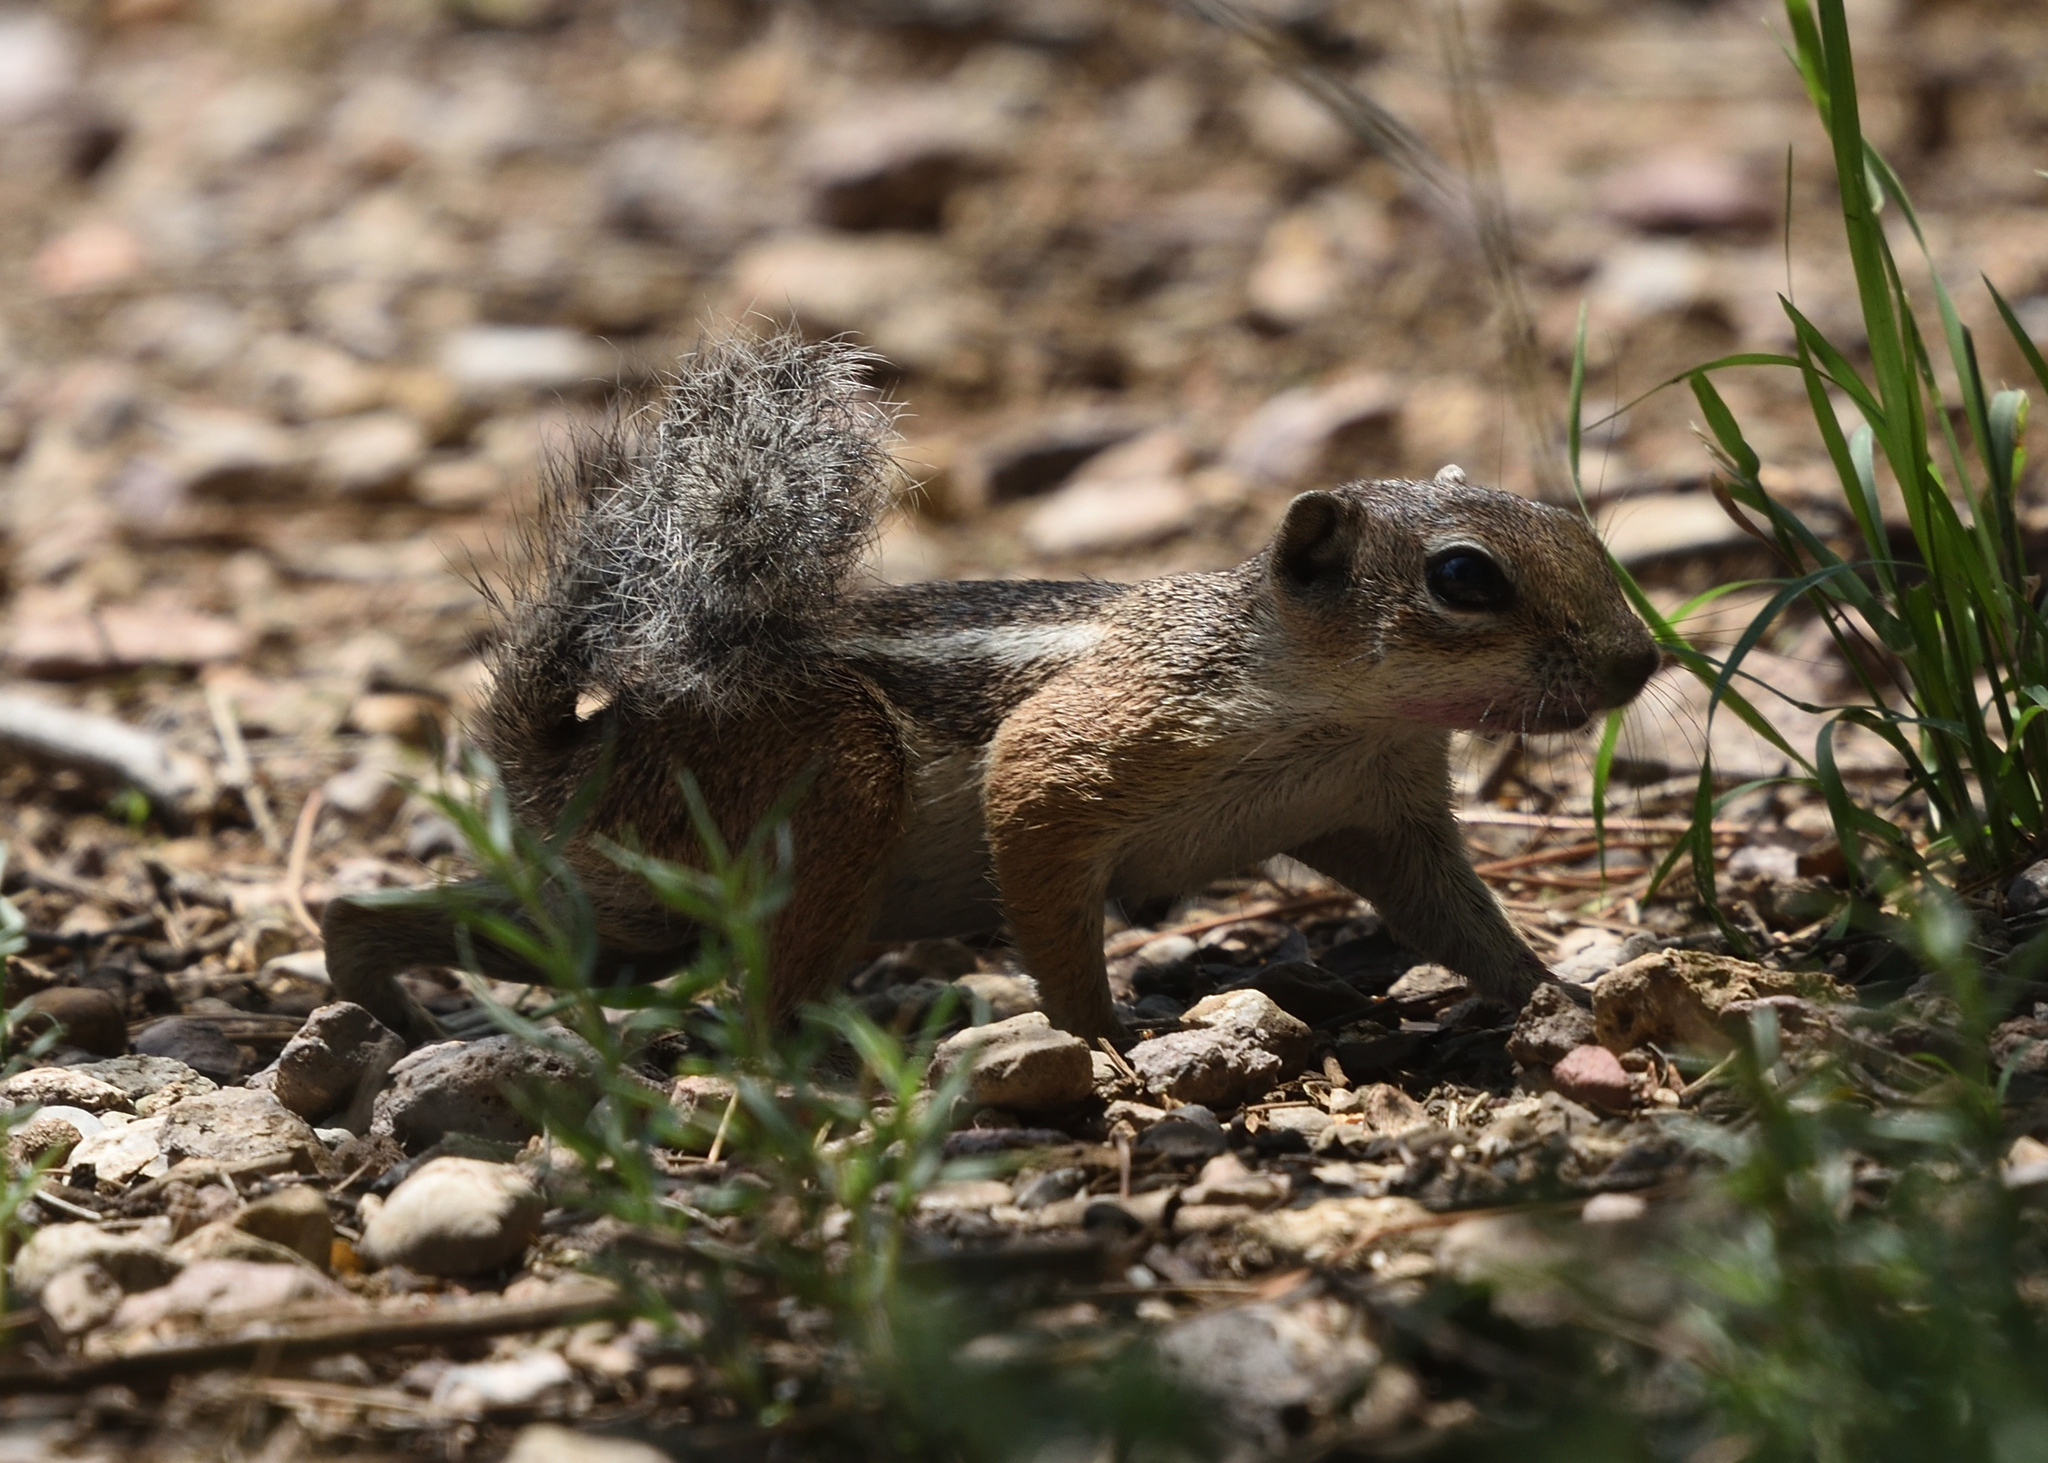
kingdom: Animalia
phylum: Chordata
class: Mammalia
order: Rodentia
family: Sciuridae
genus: Ammospermophilus
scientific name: Ammospermophilus harrisii
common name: Harris's antelope squirrel
